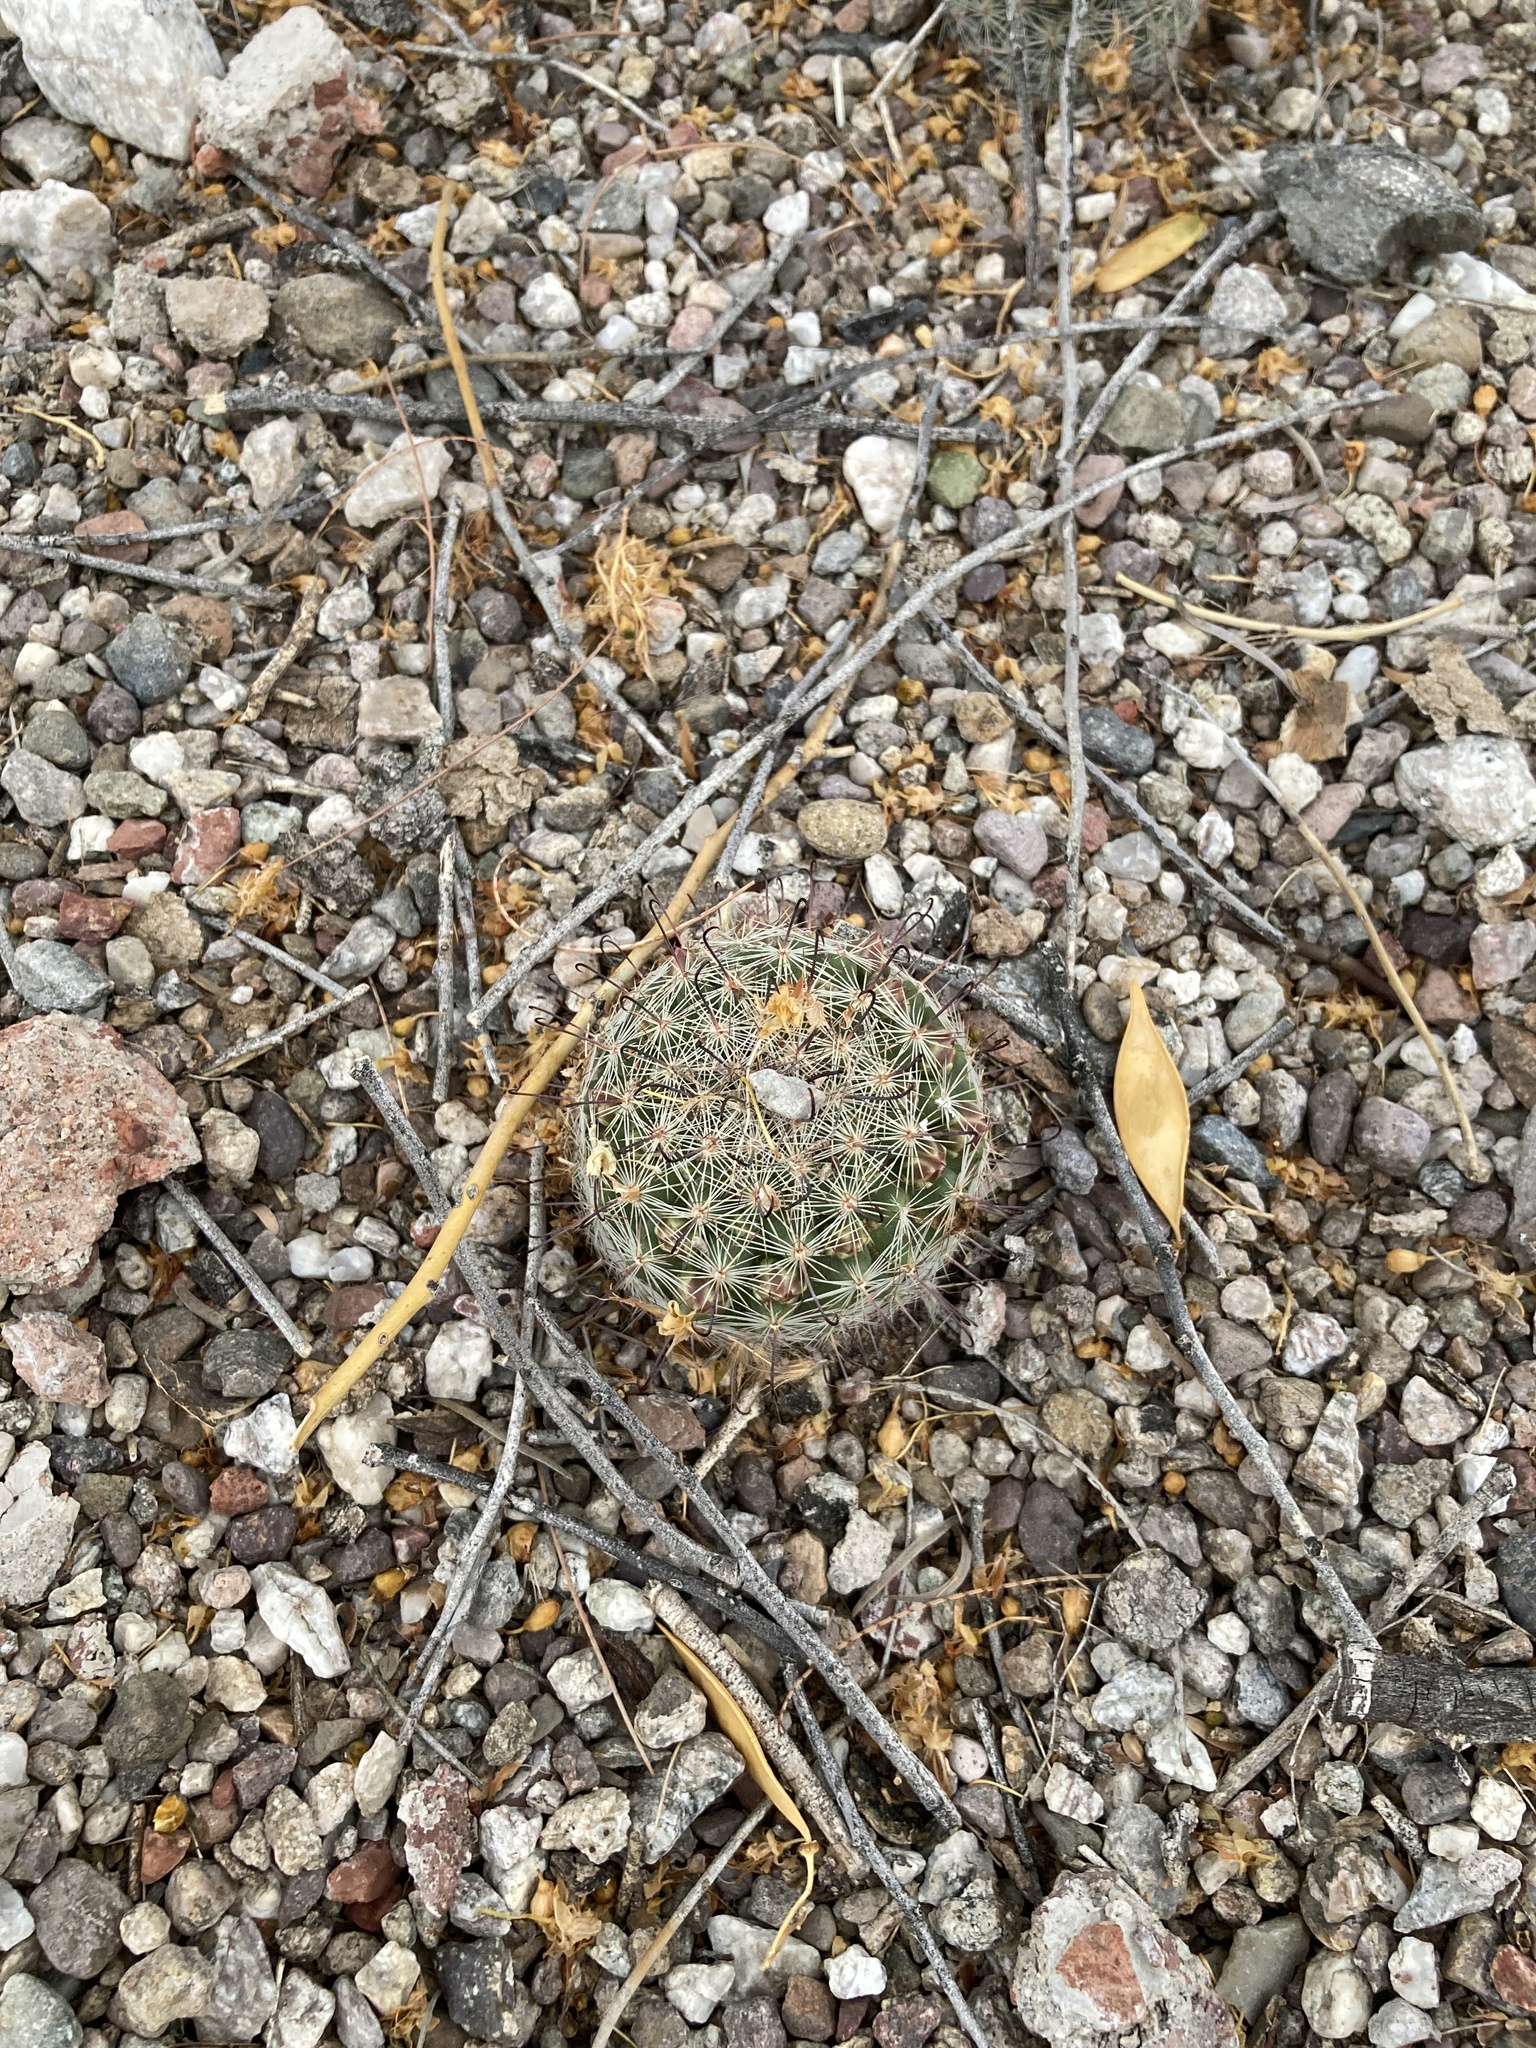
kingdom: Plantae
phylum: Tracheophyta
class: Magnoliopsida
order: Caryophyllales
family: Cactaceae
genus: Cochemiea
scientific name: Cochemiea grahamii
